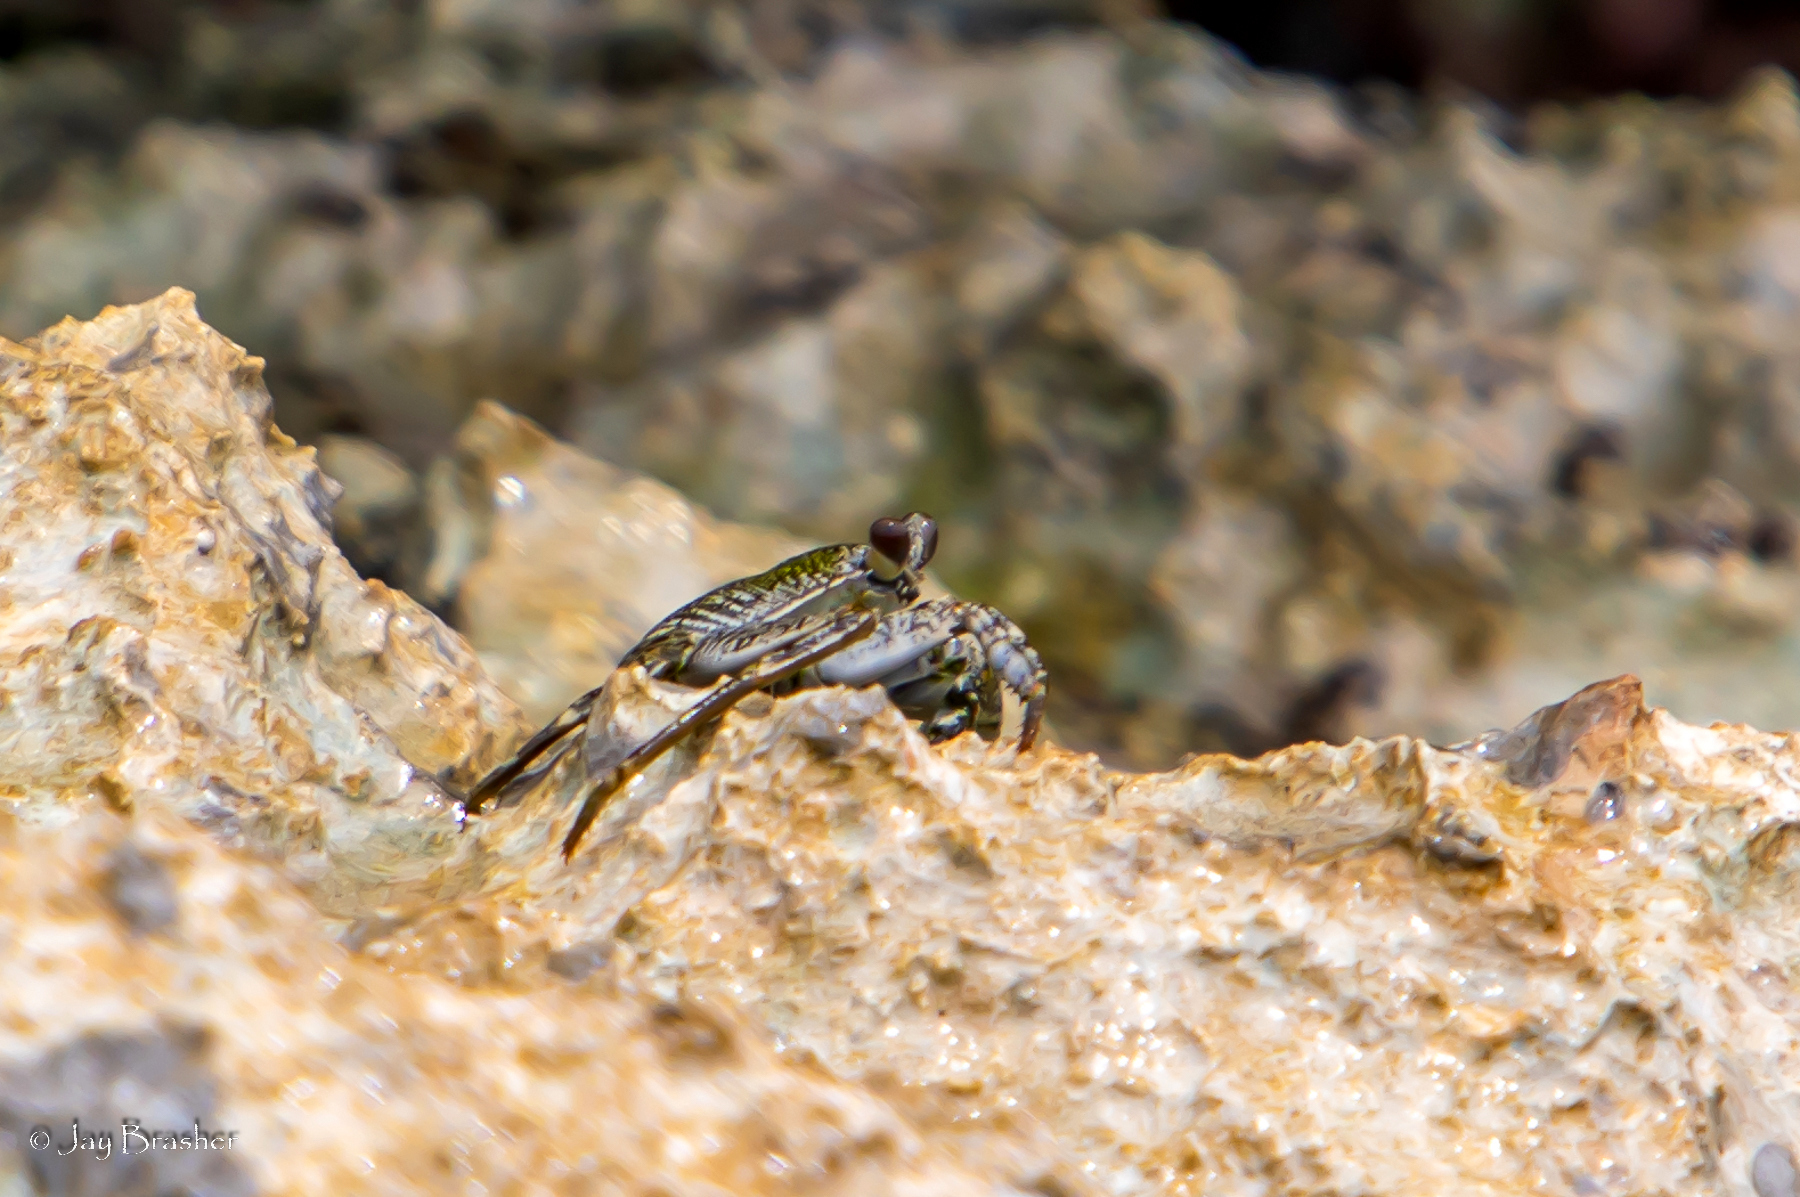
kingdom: Animalia
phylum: Arthropoda
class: Malacostraca
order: Decapoda
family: Grapsidae
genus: Grapsus
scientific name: Grapsus grapsus
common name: Sally lightfoot
